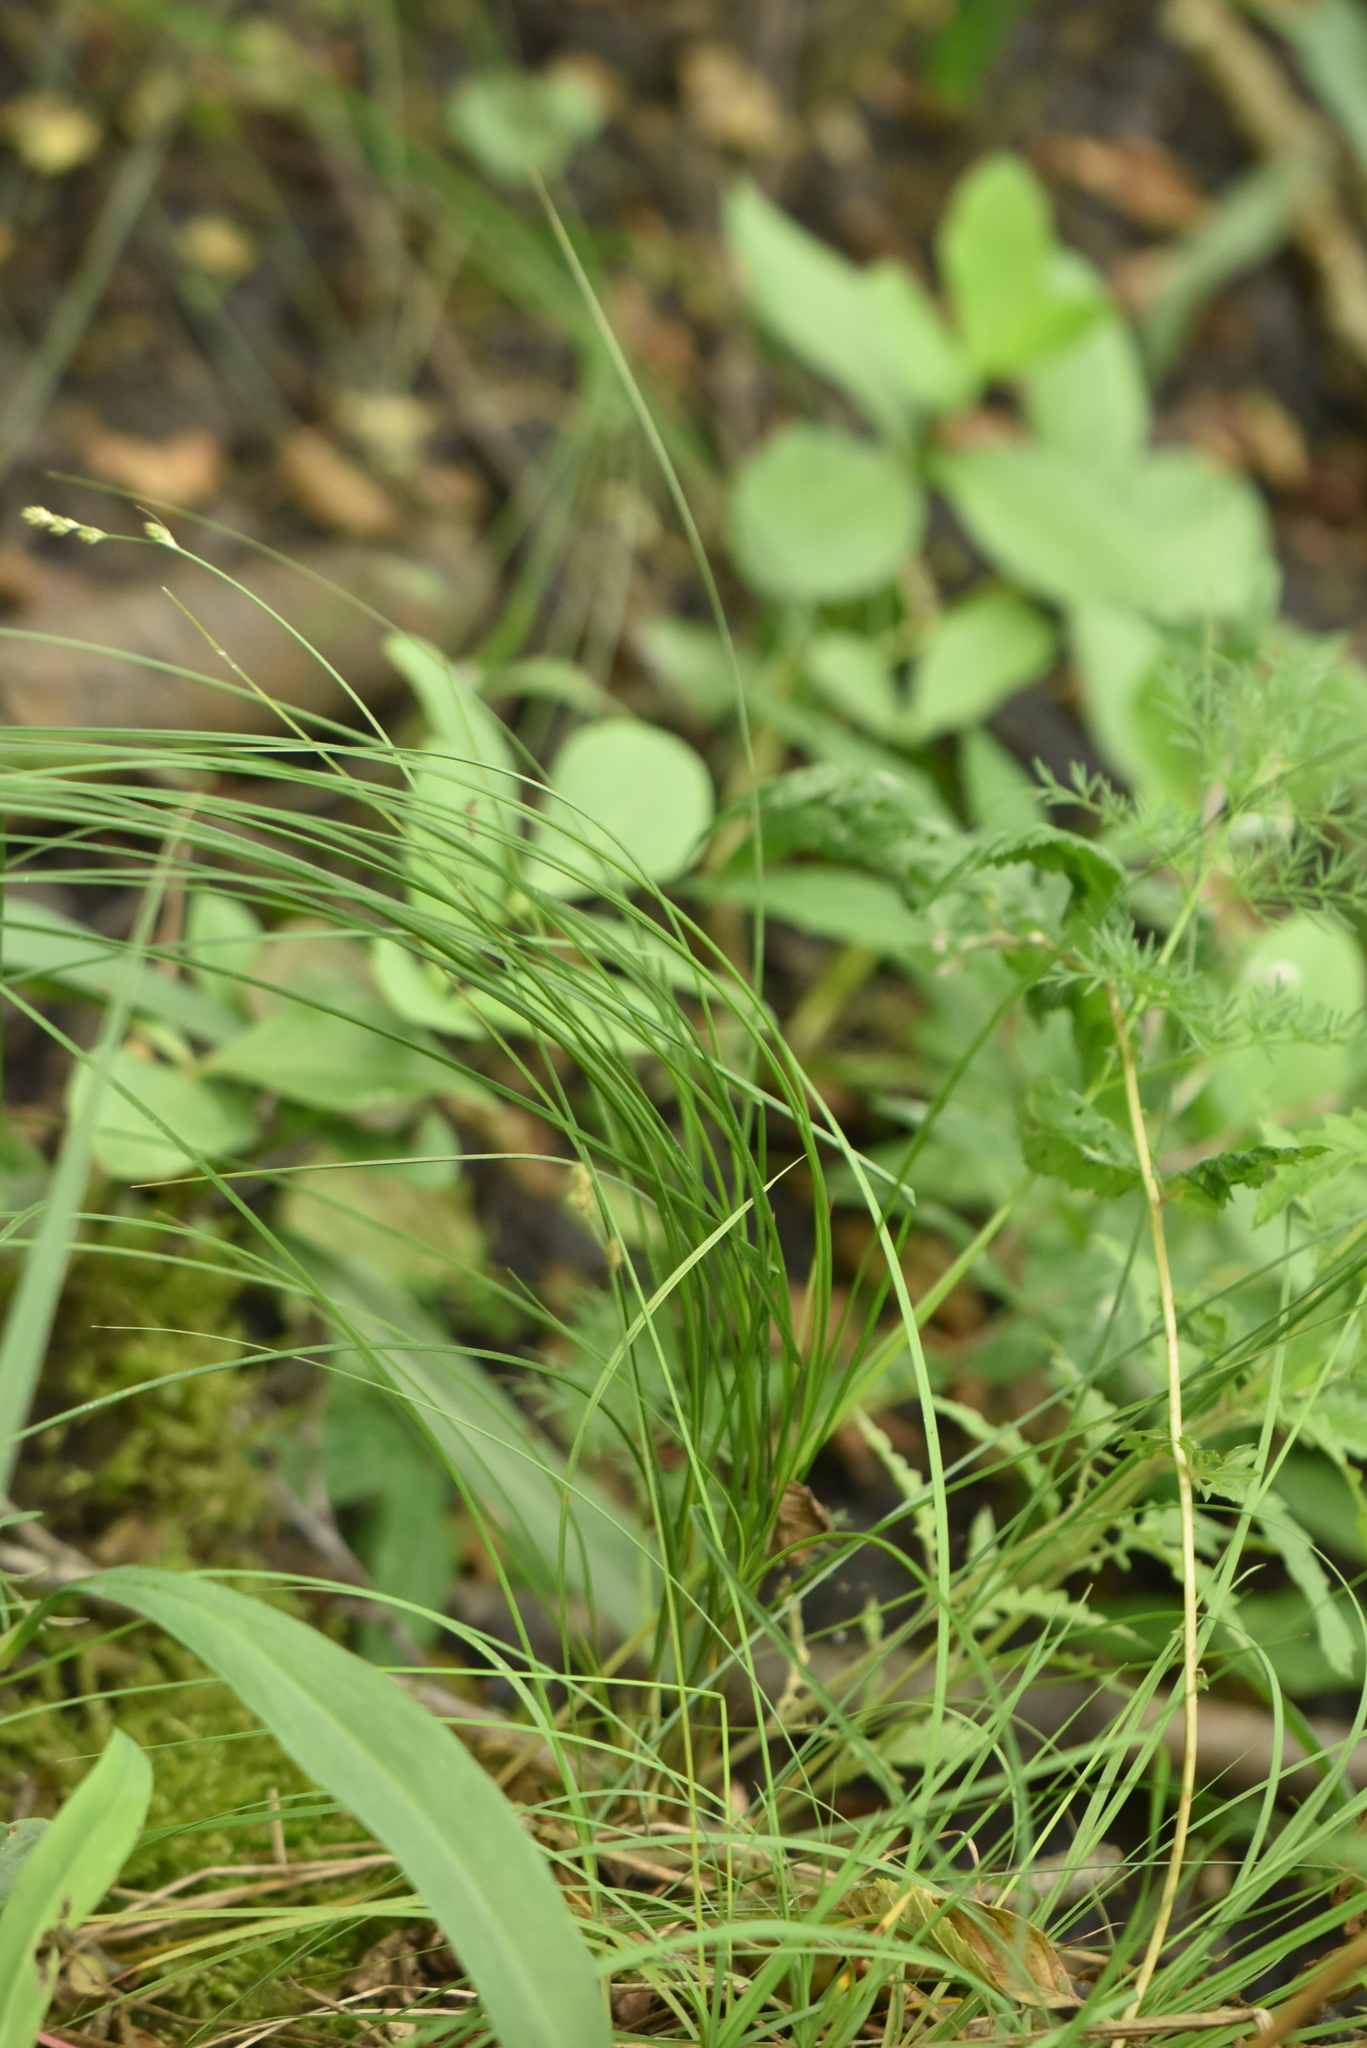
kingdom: Plantae
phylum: Tracheophyta
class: Liliopsida
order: Poales
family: Cyperaceae
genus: Carex
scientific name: Carex canescens
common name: White sedge
